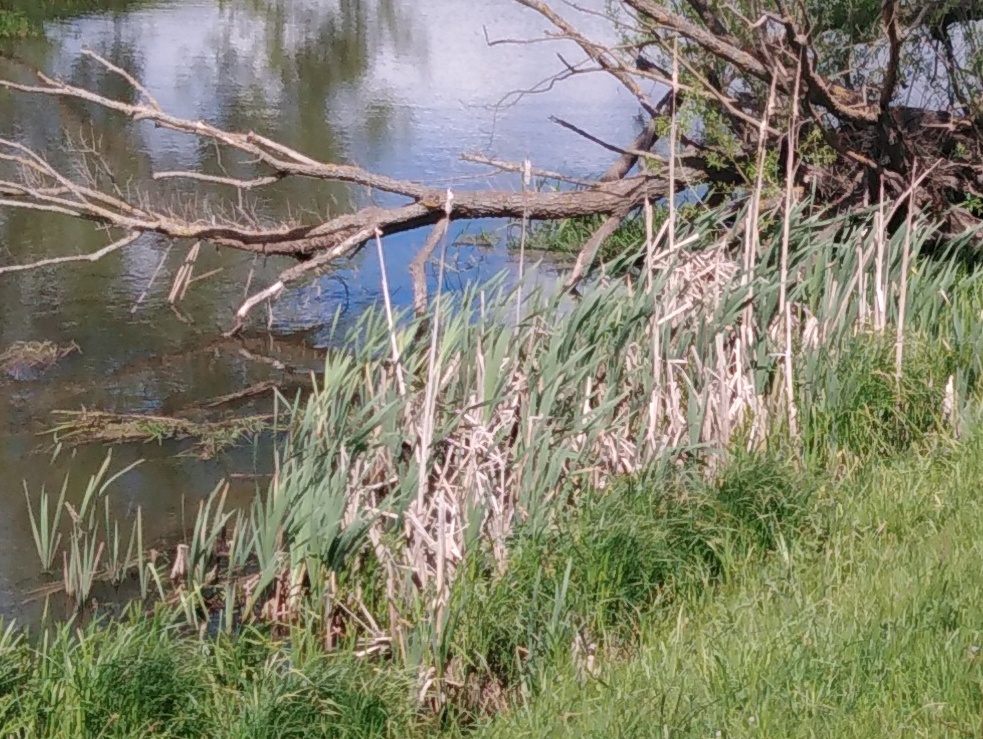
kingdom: Plantae
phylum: Tracheophyta
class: Liliopsida
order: Poales
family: Typhaceae
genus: Typha
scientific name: Typha latifolia
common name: Broadleaf cattail
